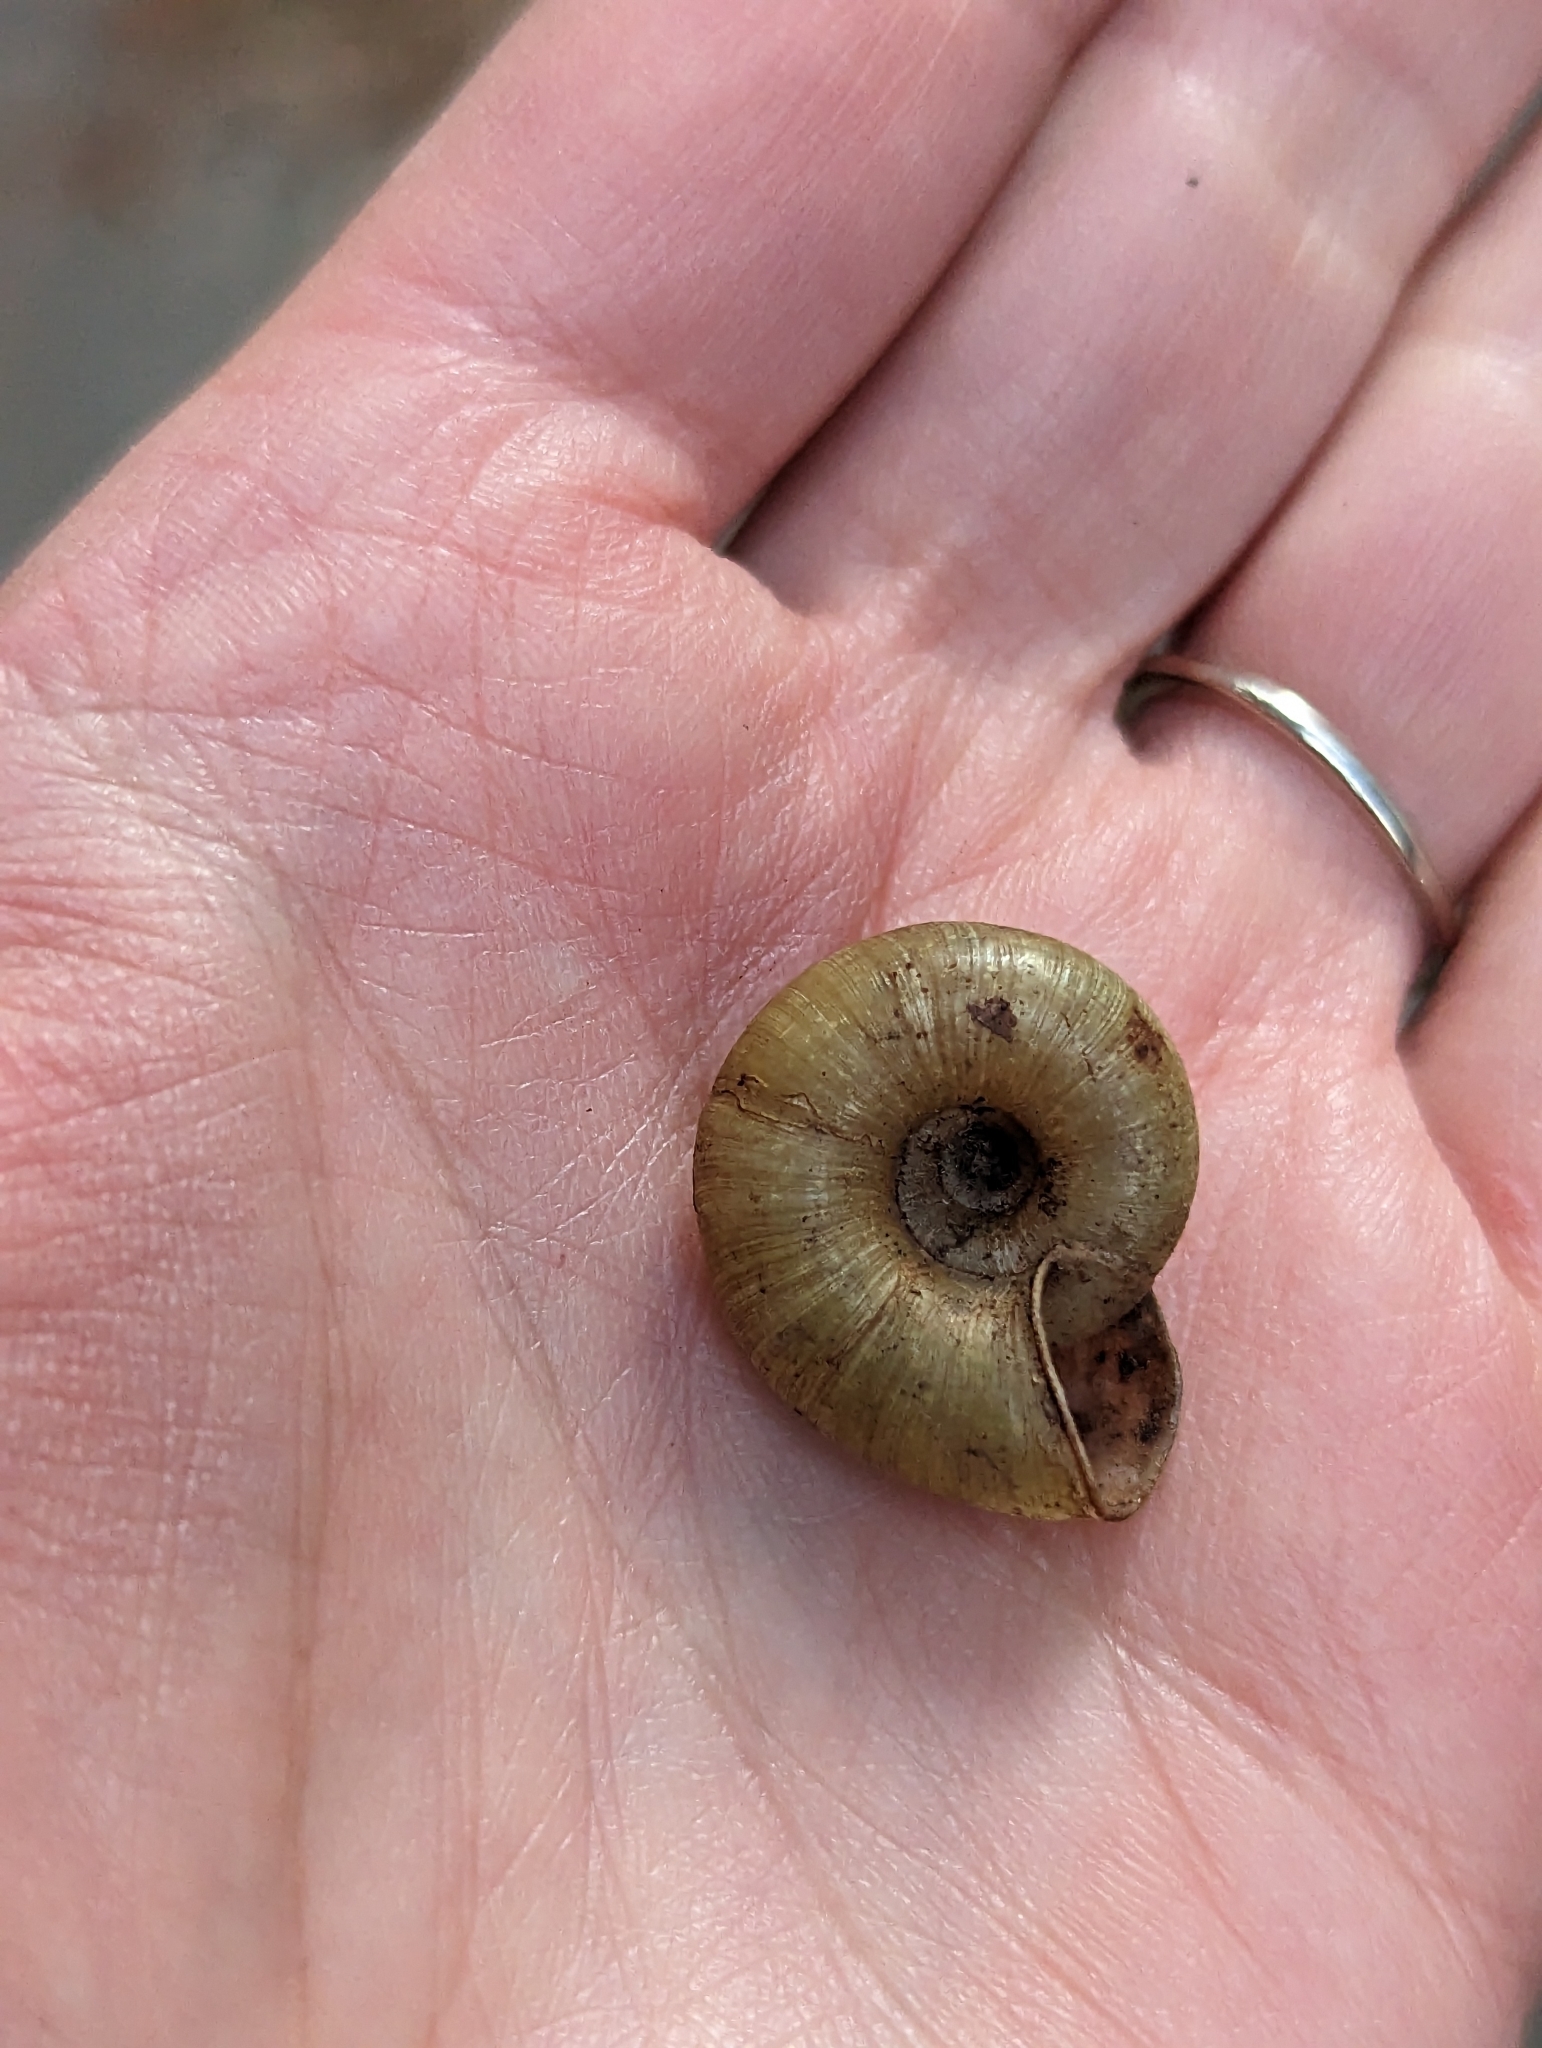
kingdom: Animalia
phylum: Mollusca
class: Gastropoda
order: Stylommatophora
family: Haplotrematidae
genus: Haplotrema
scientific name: Haplotrema minimum
